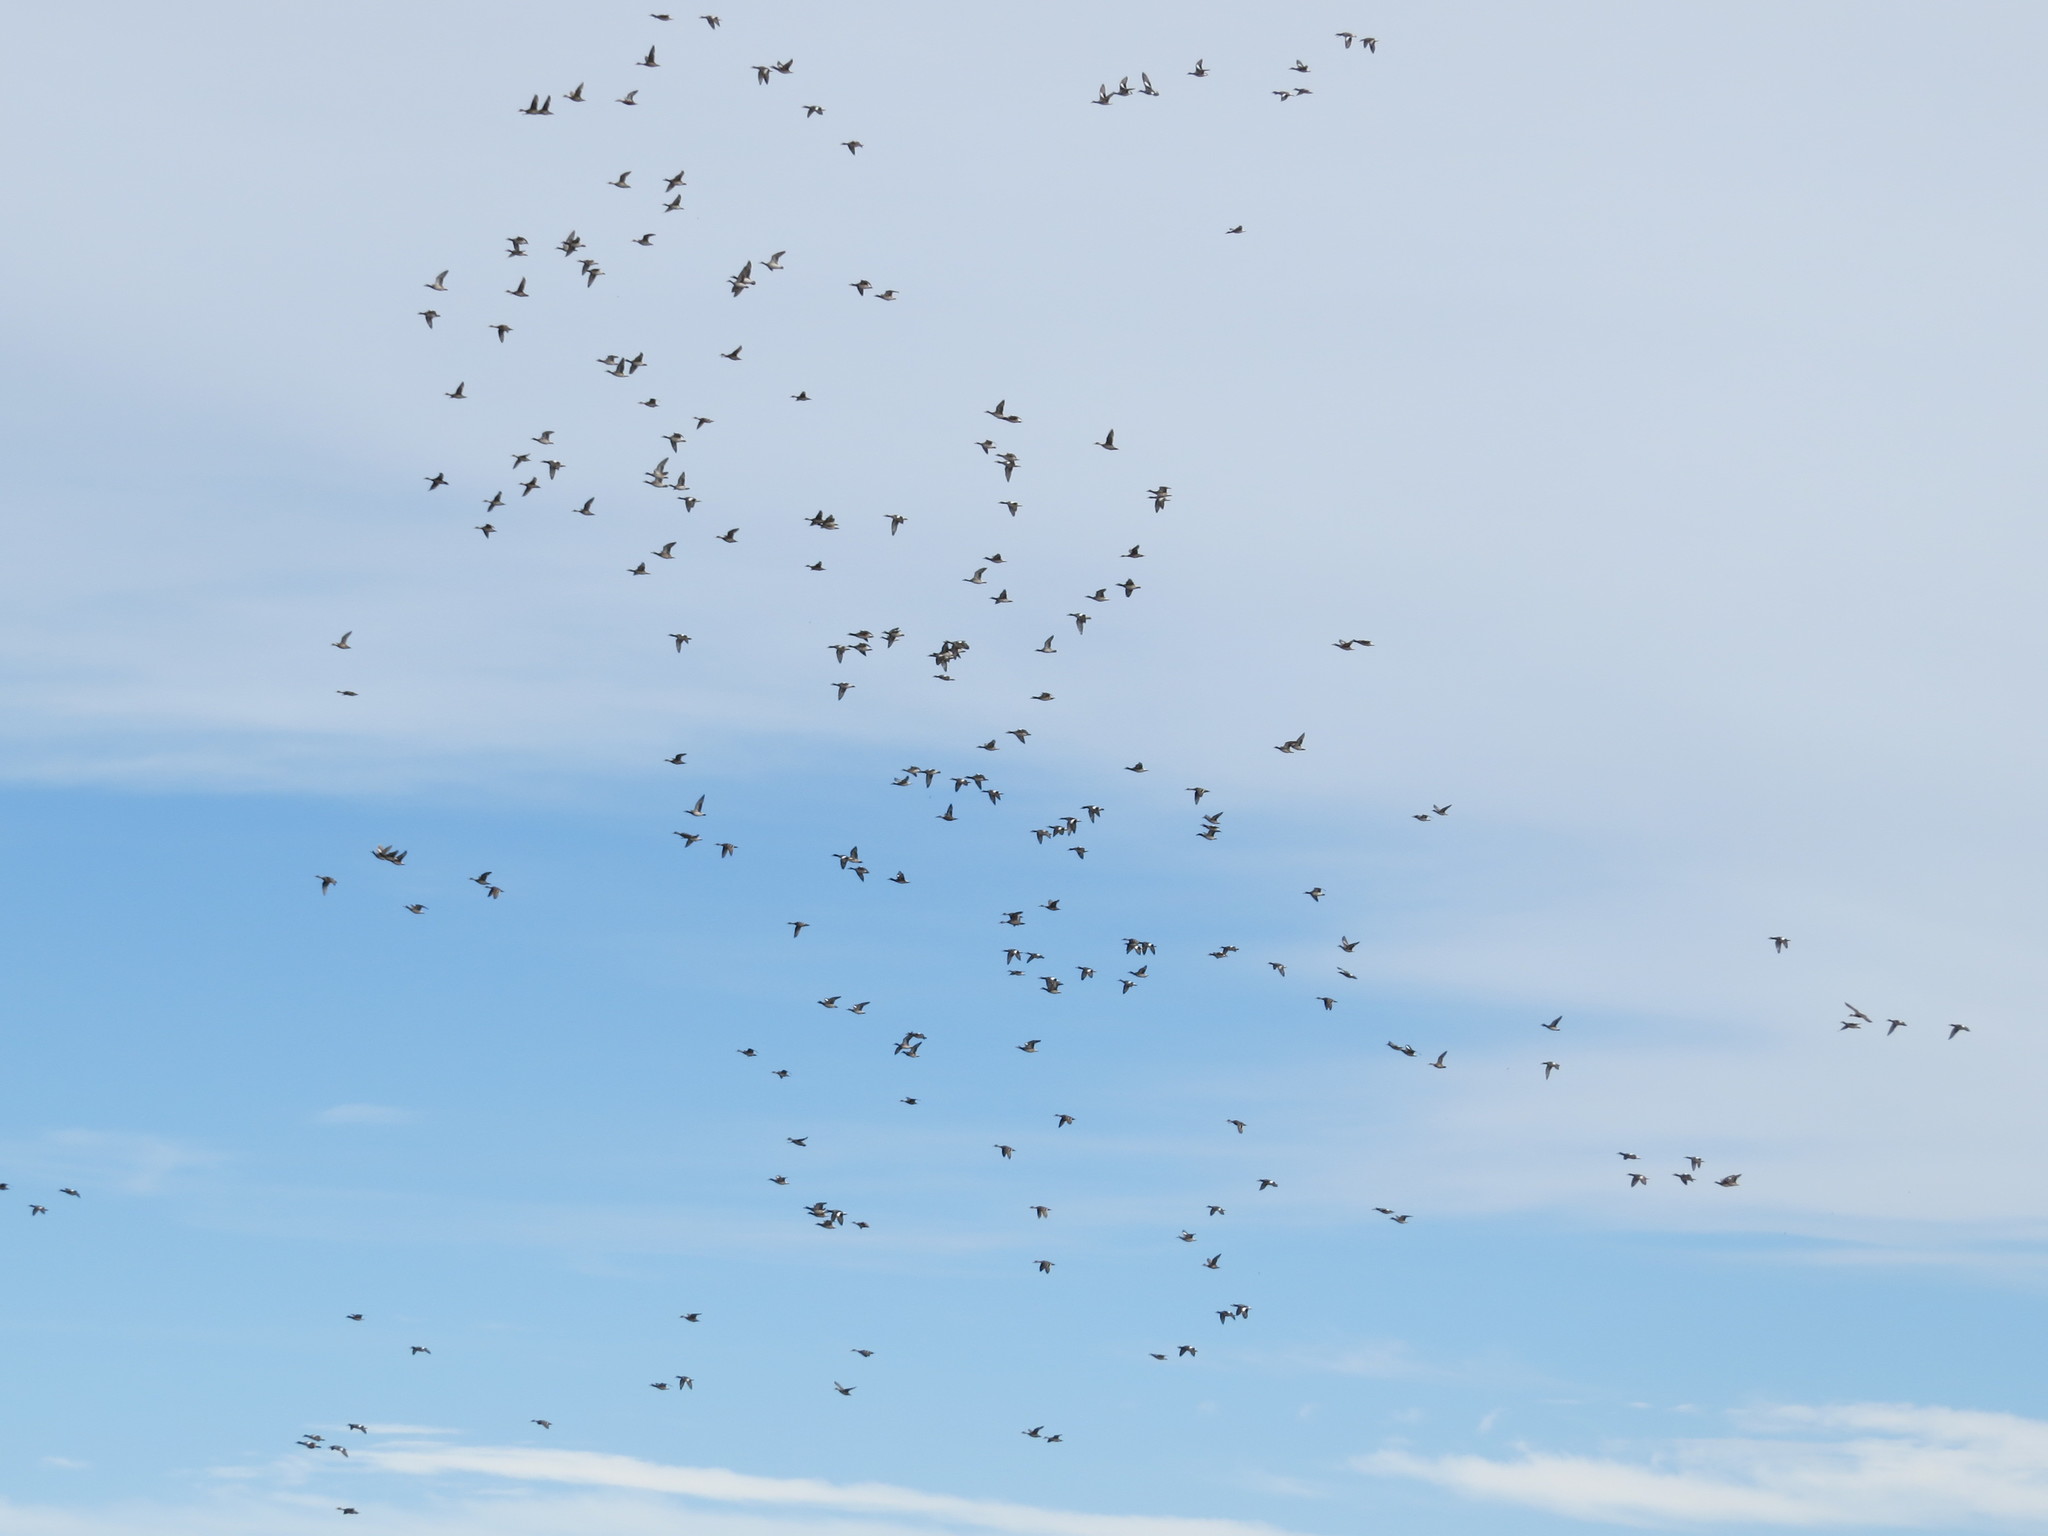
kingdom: Animalia
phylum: Chordata
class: Aves
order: Anseriformes
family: Anatidae
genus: Mareca
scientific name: Mareca sibilatrix
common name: Chiloe wigeon
